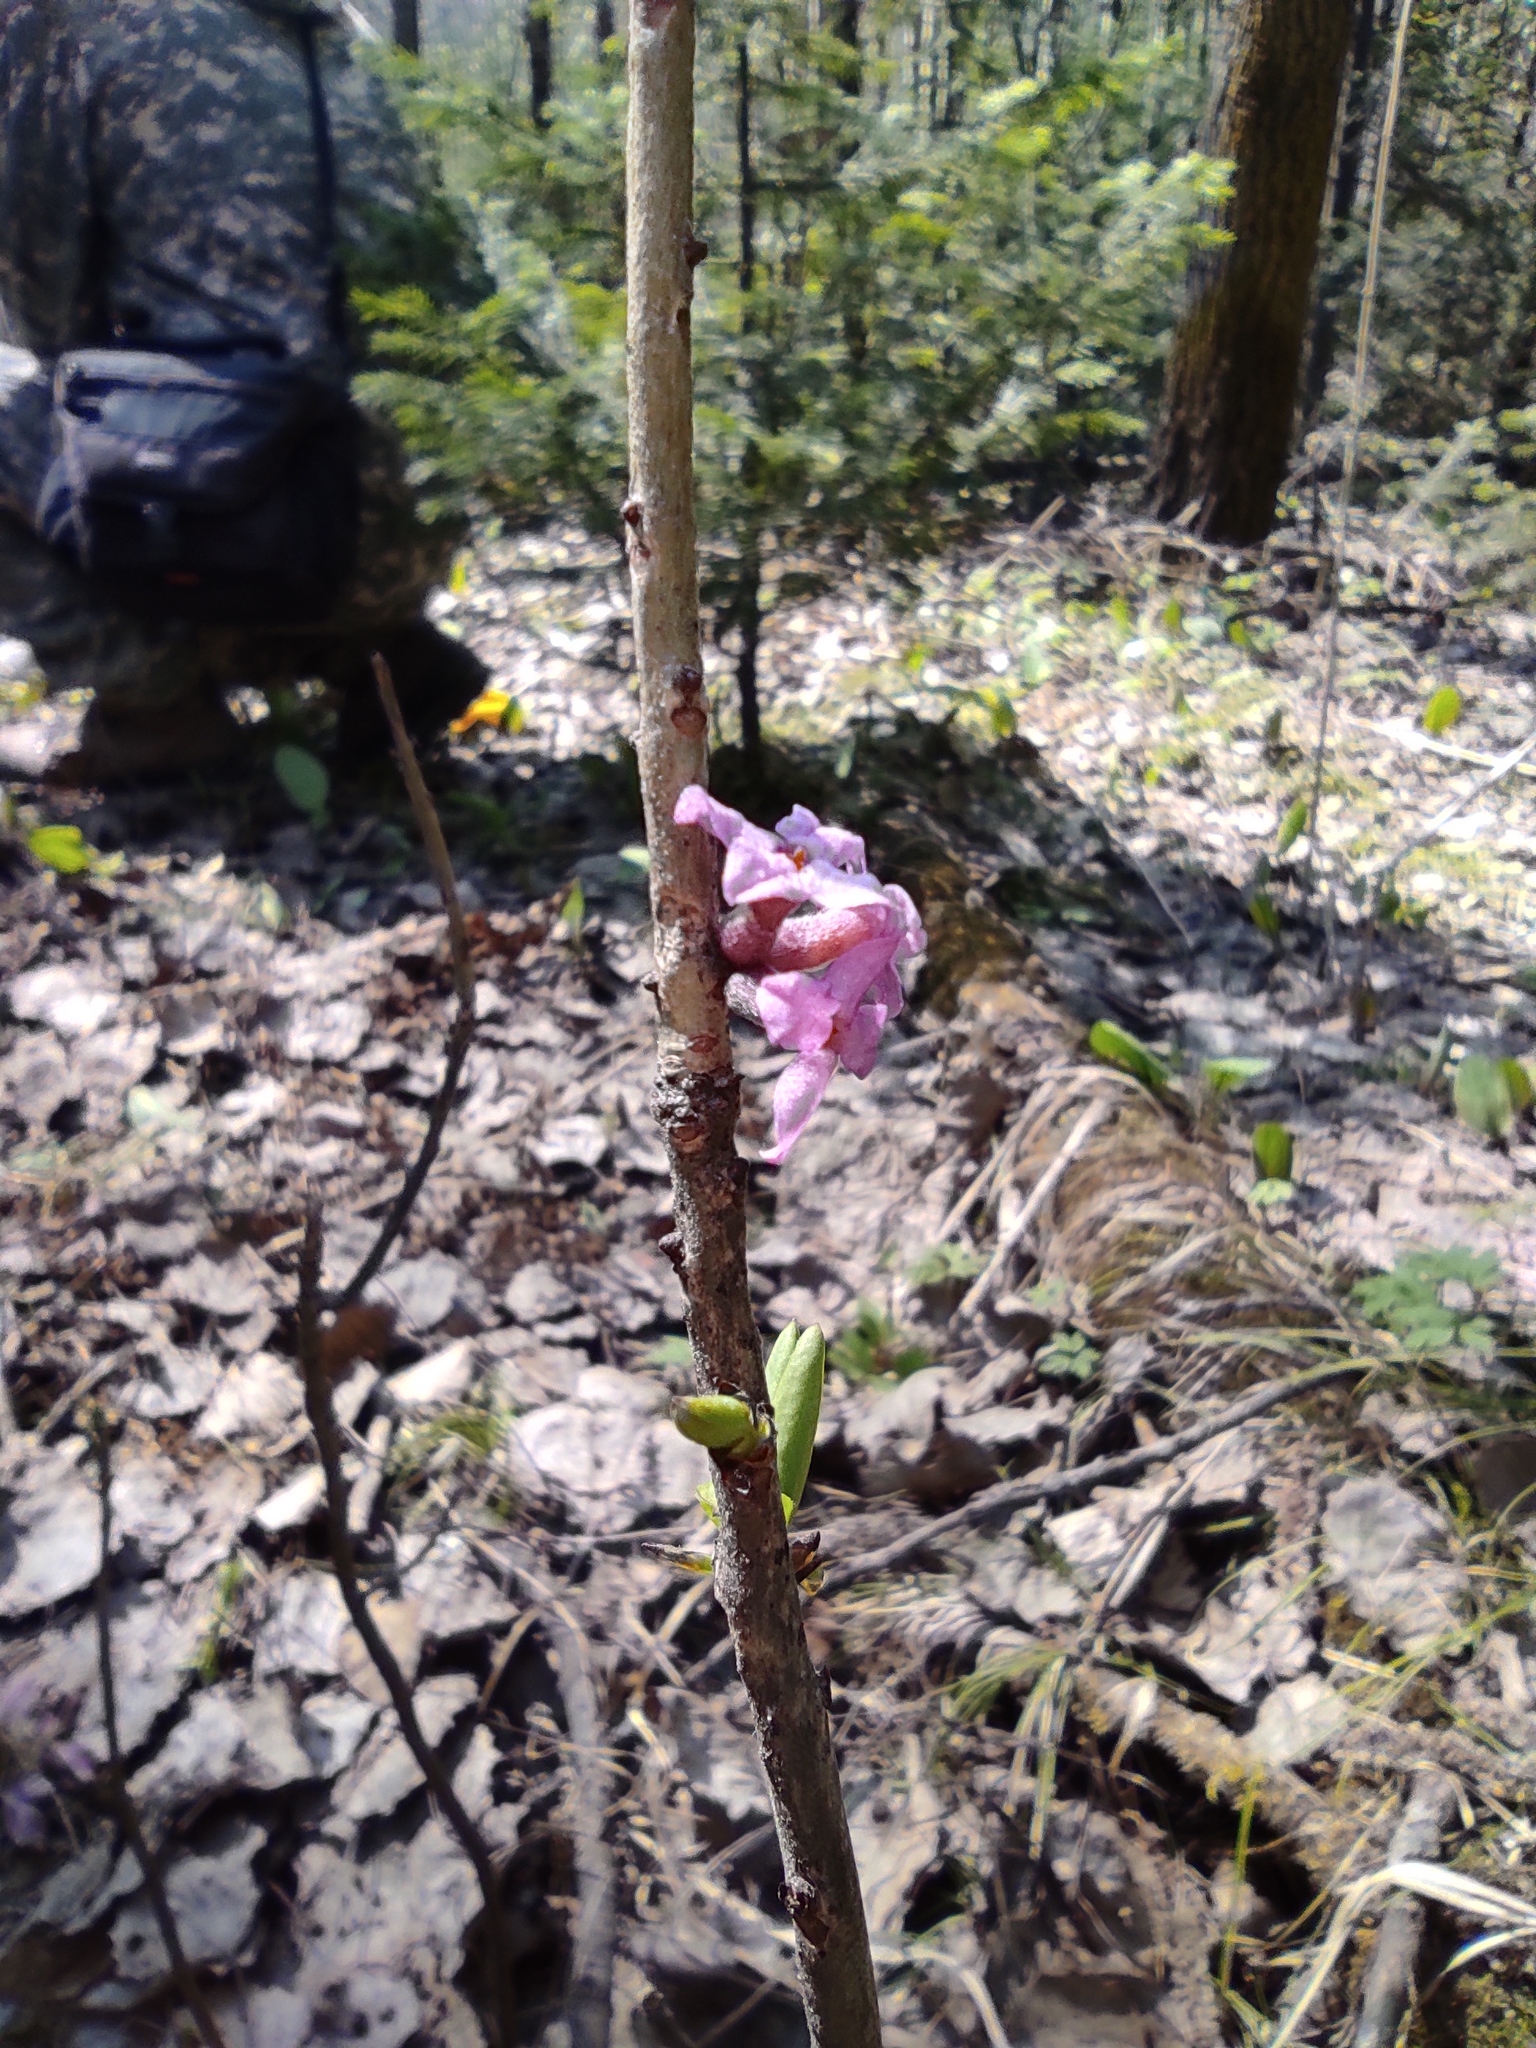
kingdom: Plantae
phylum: Tracheophyta
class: Magnoliopsida
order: Malvales
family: Thymelaeaceae
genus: Daphne
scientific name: Daphne mezereum
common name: Mezereon
